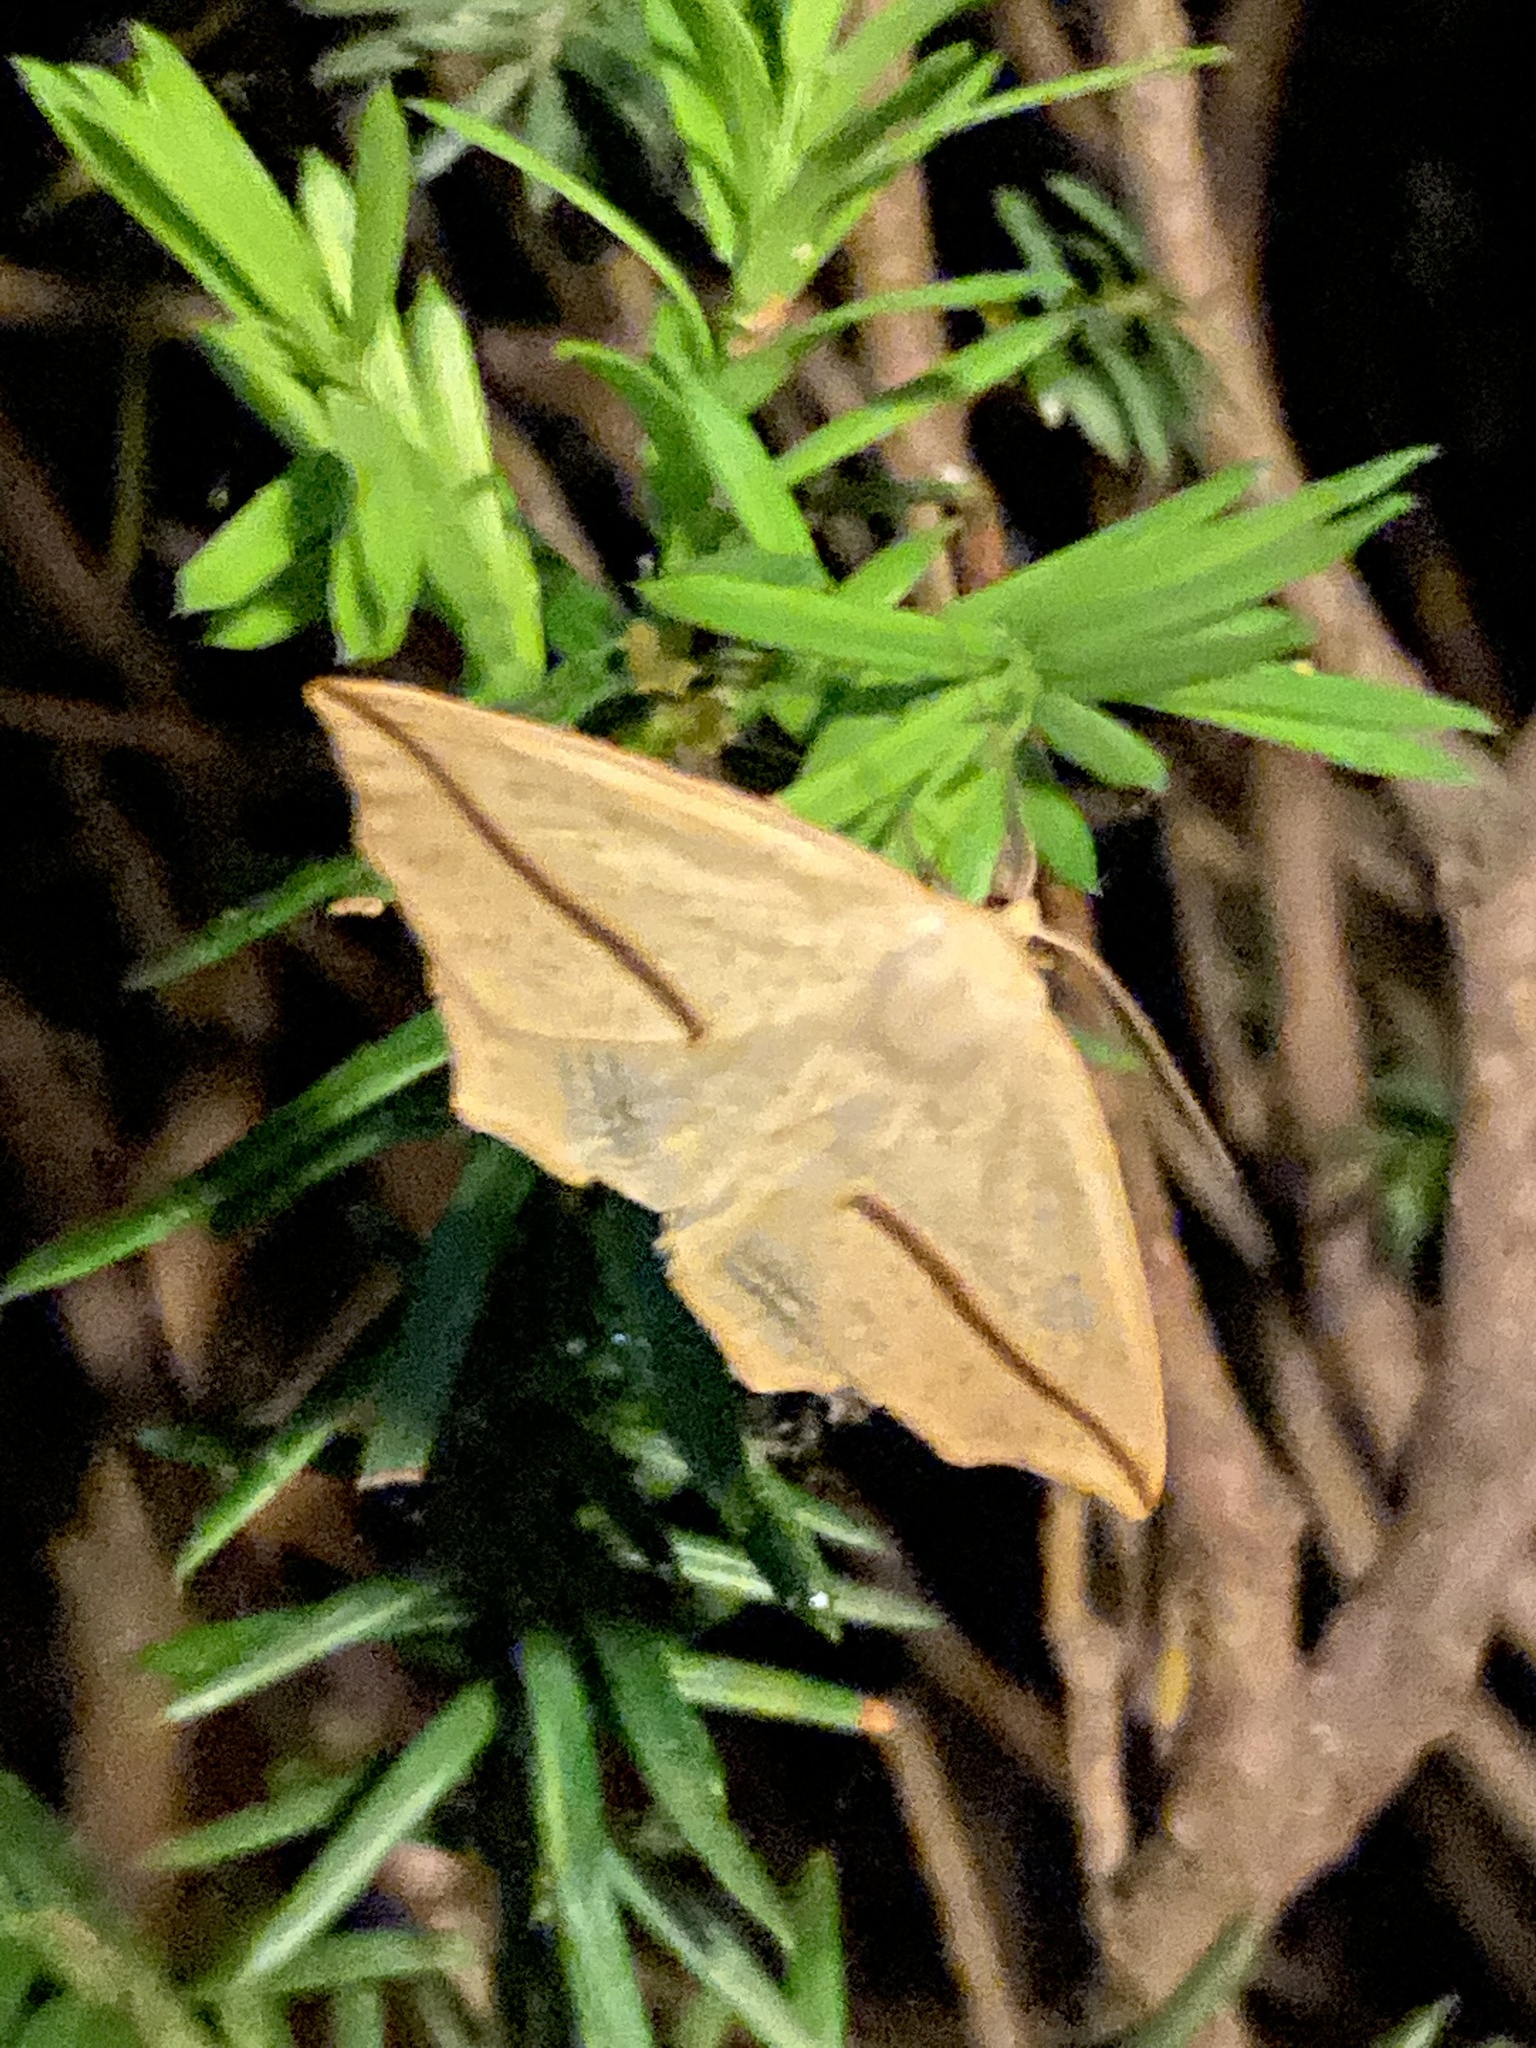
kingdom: Animalia
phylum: Arthropoda
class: Insecta
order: Lepidoptera
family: Geometridae
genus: Tetracis
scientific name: Tetracis crocallata
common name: Yellow slant-line
